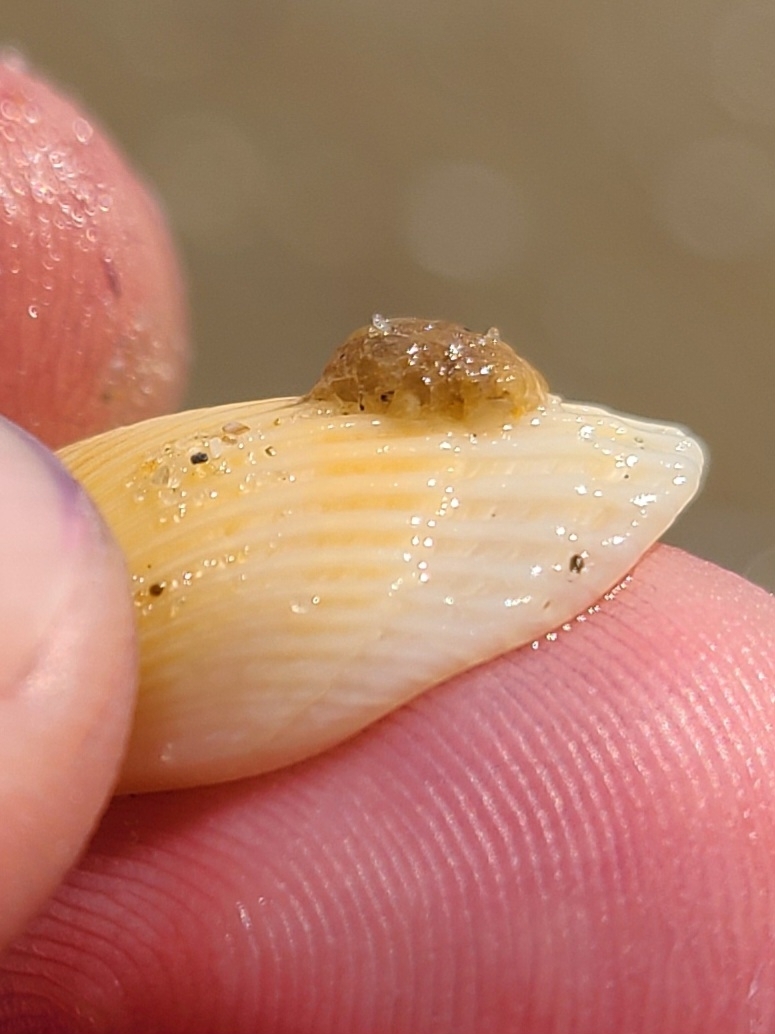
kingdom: Animalia
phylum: Mollusca
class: Bivalvia
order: Arcida
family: Arcidae
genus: Anadara
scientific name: Anadara transversa
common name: Transverse ark
